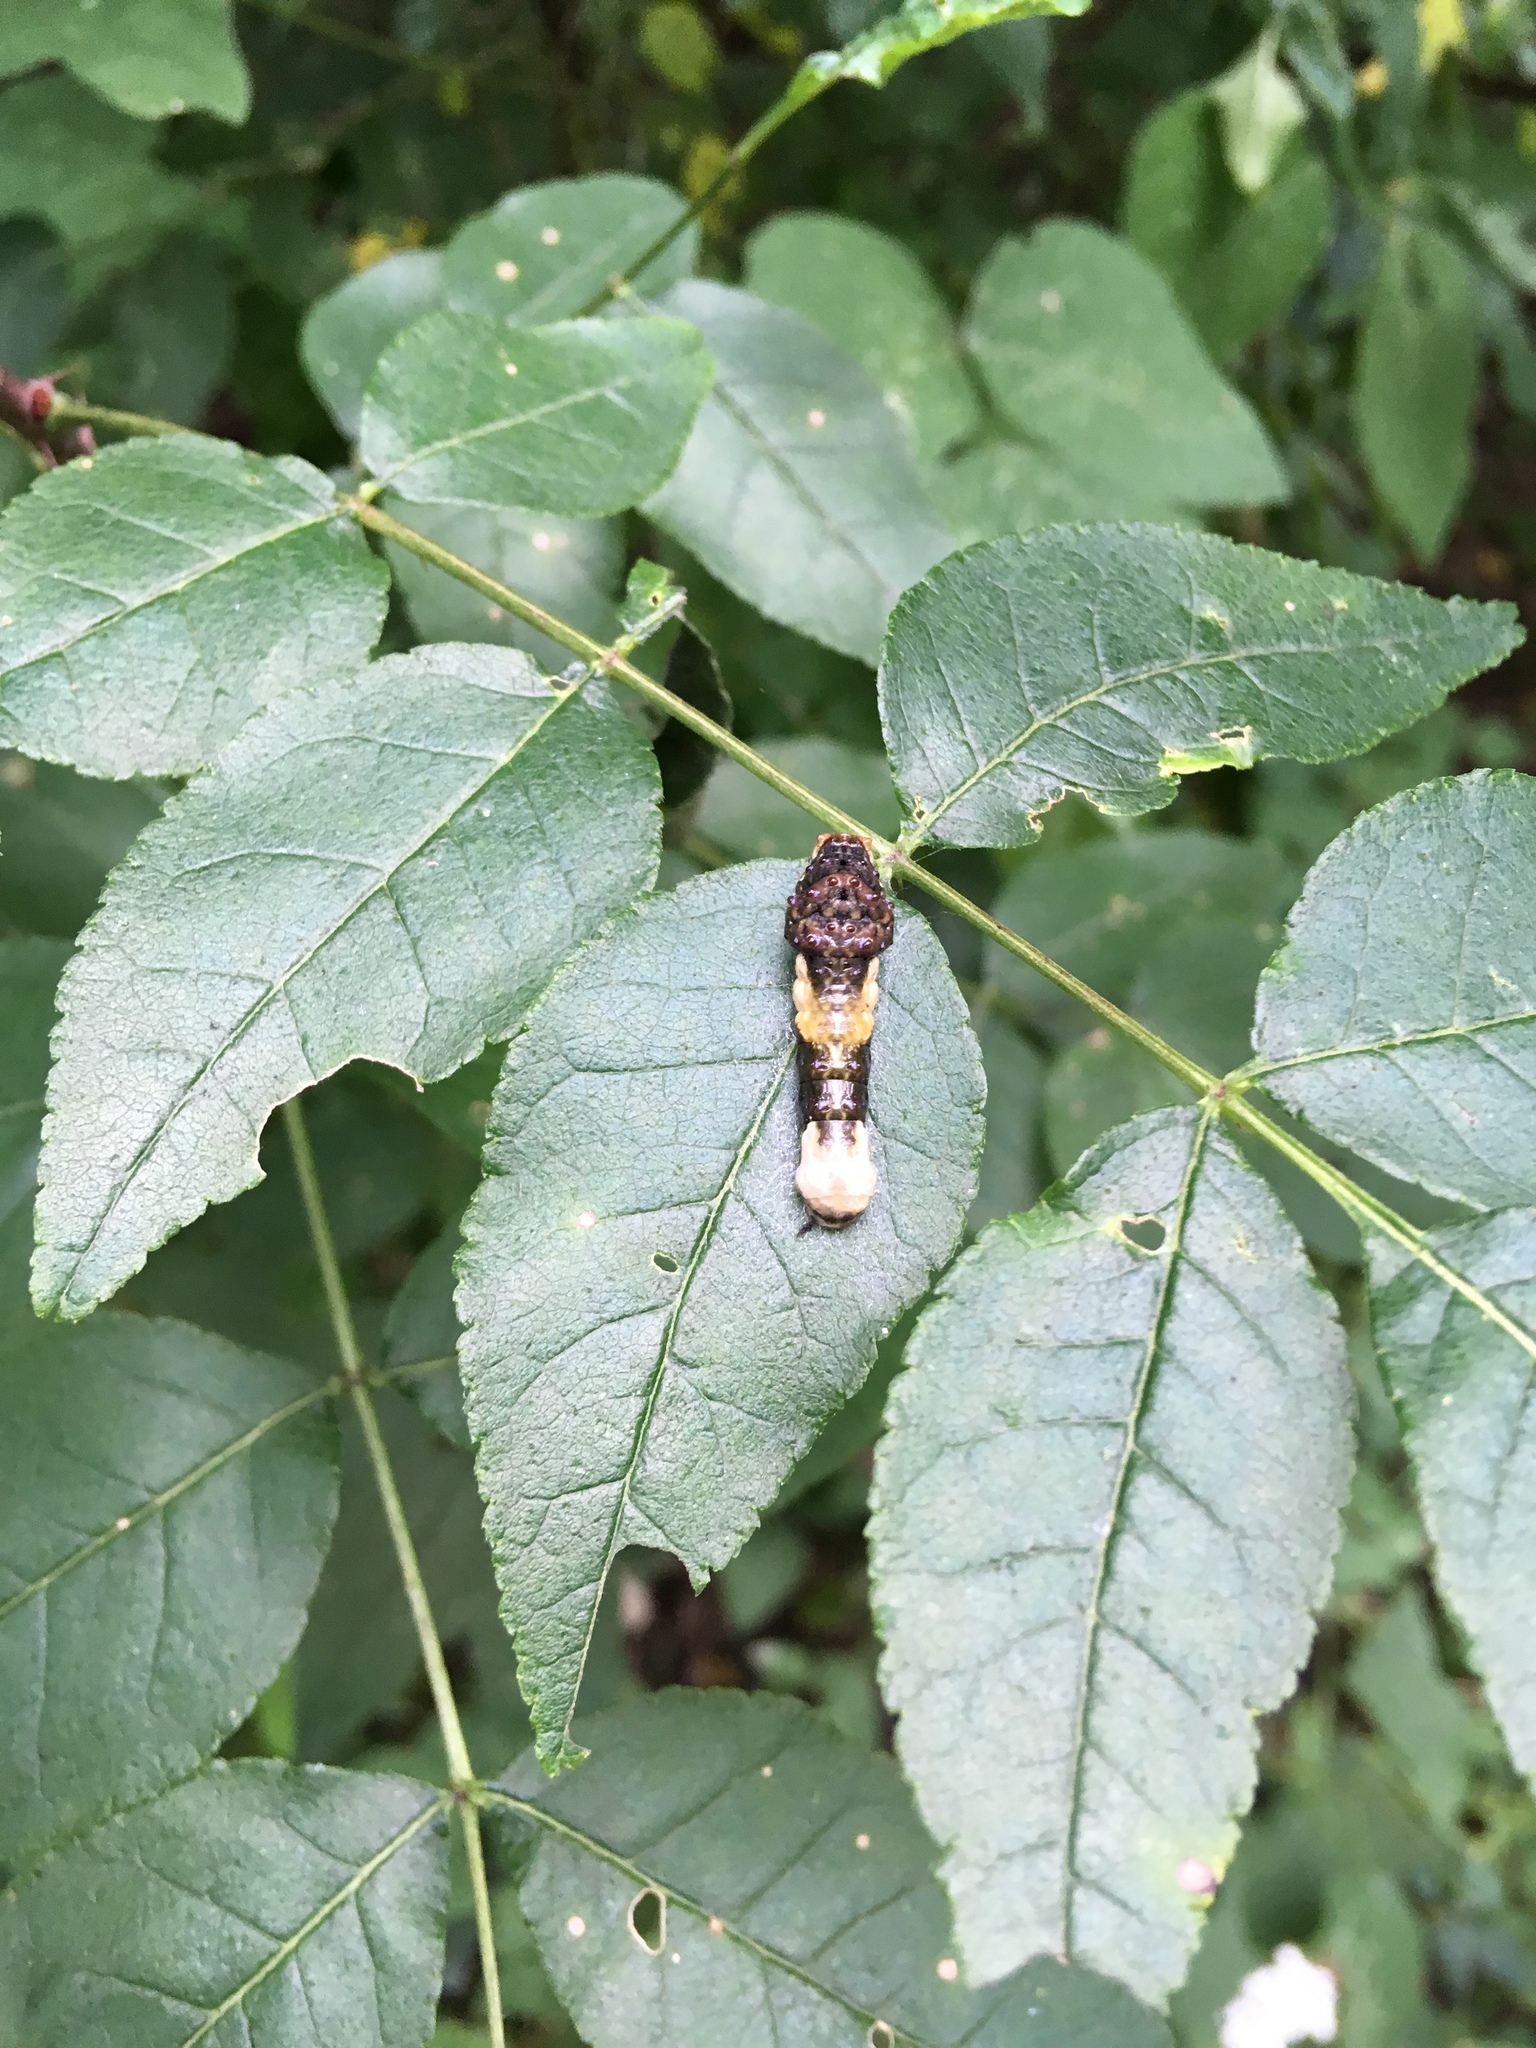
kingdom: Animalia
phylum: Arthropoda
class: Insecta
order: Lepidoptera
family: Papilionidae
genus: Papilio
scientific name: Papilio cresphontes
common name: Giant swallowtail
